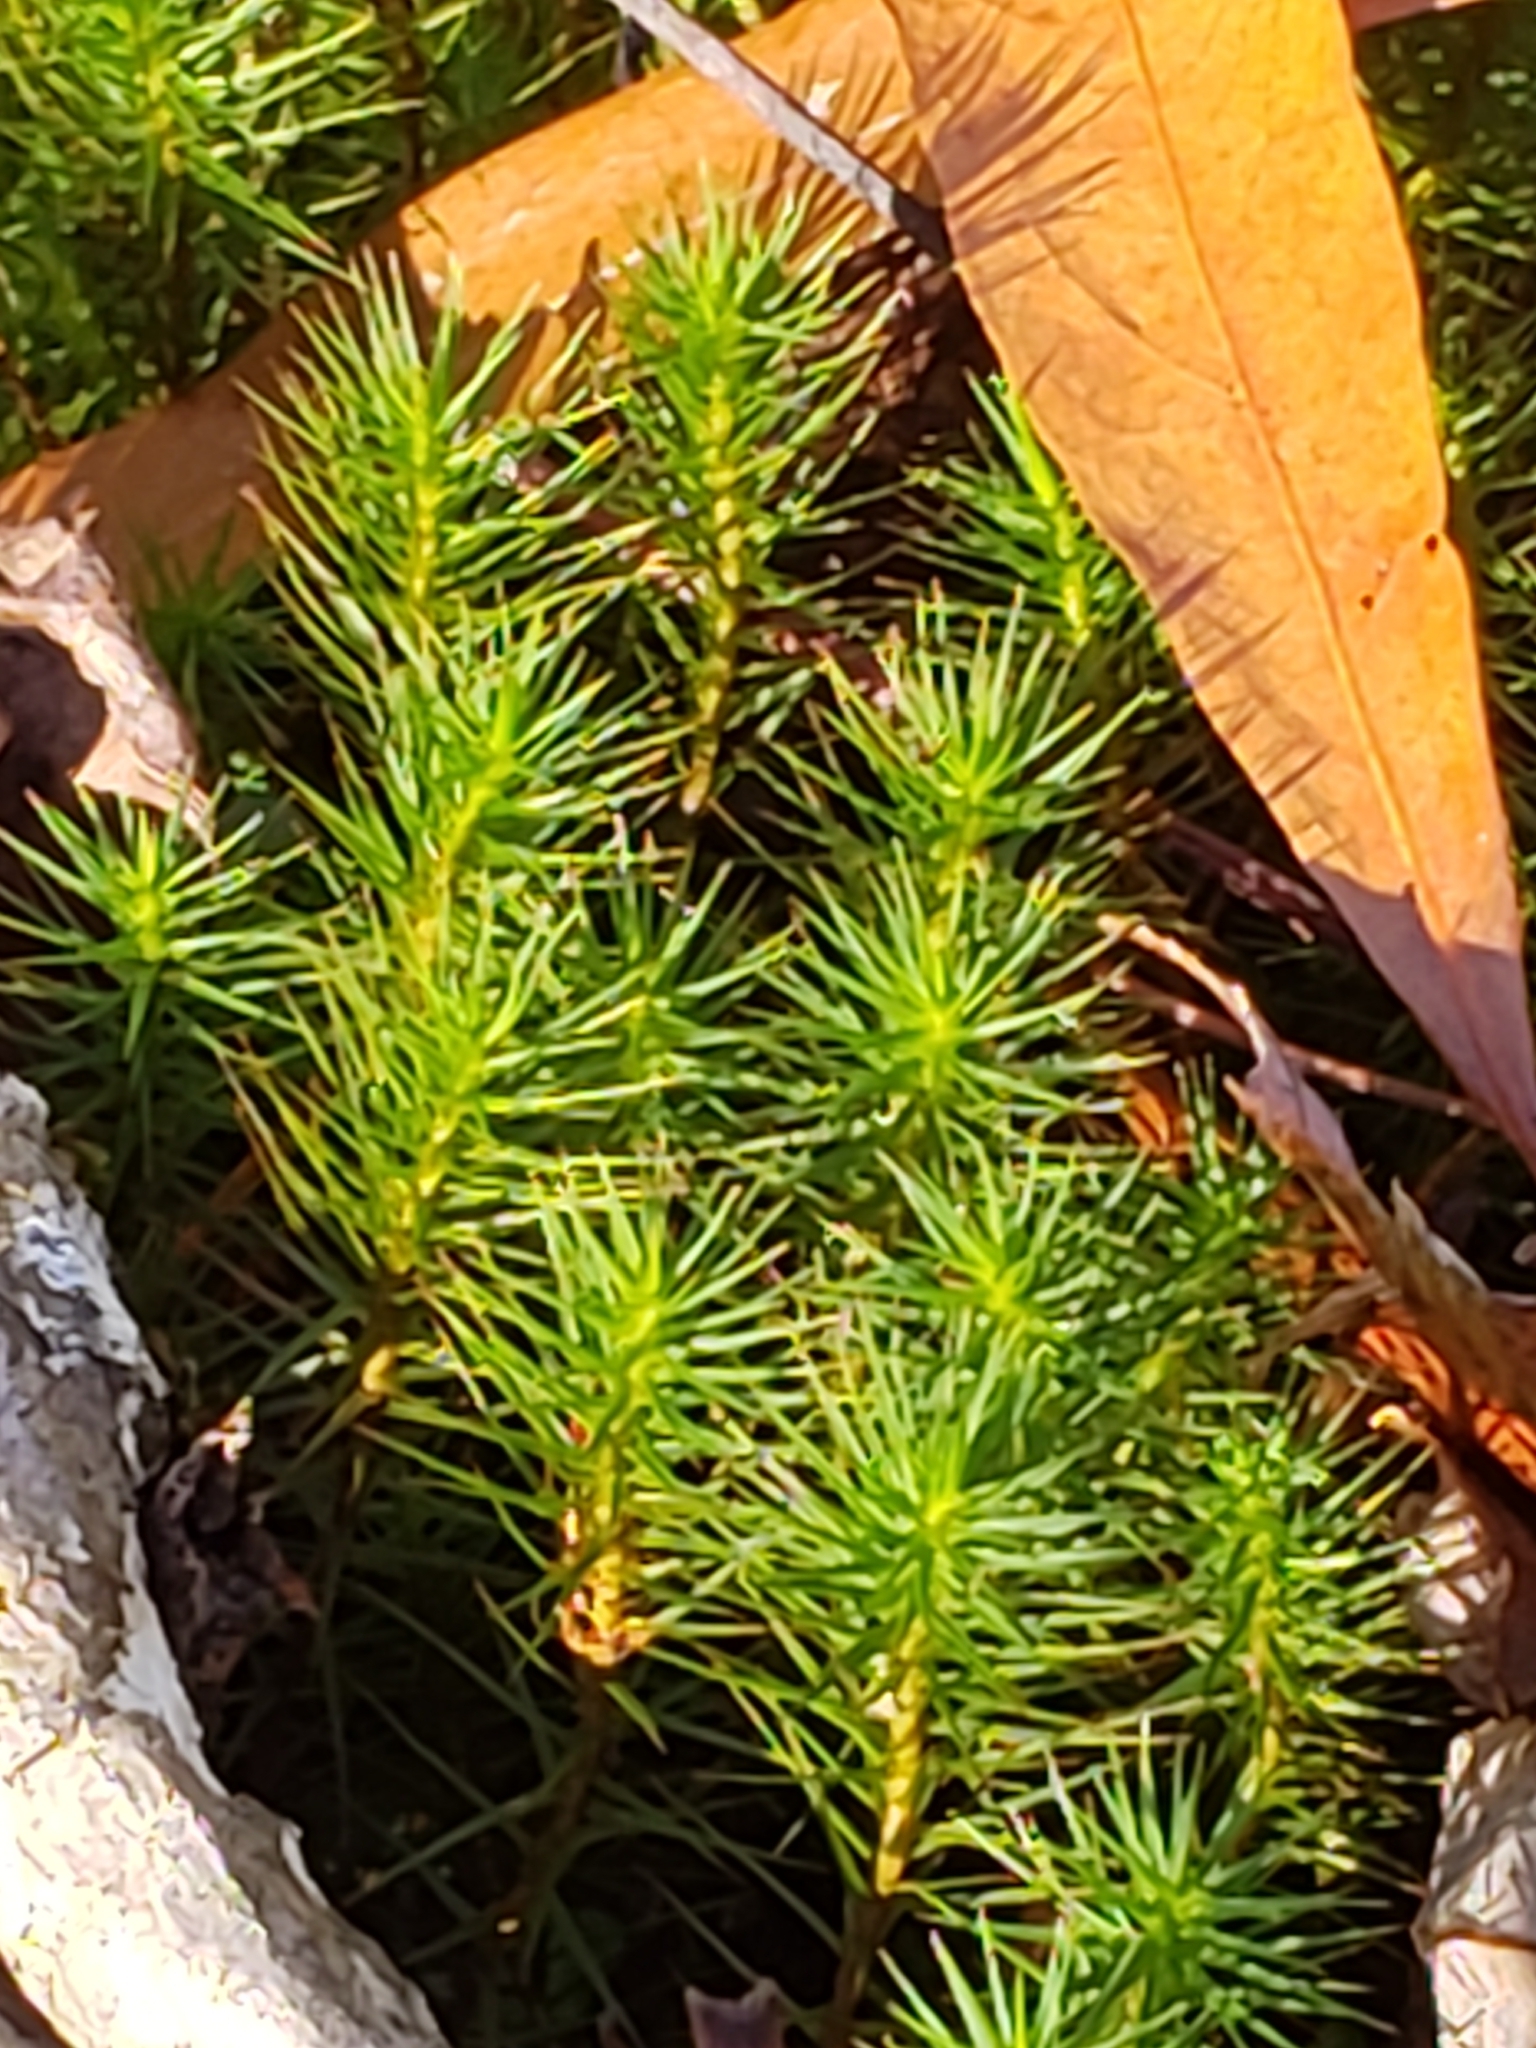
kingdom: Plantae
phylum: Bryophyta
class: Polytrichopsida
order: Polytrichales
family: Polytrichaceae
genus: Polytrichum
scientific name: Polytrichum commune
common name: Common haircap
